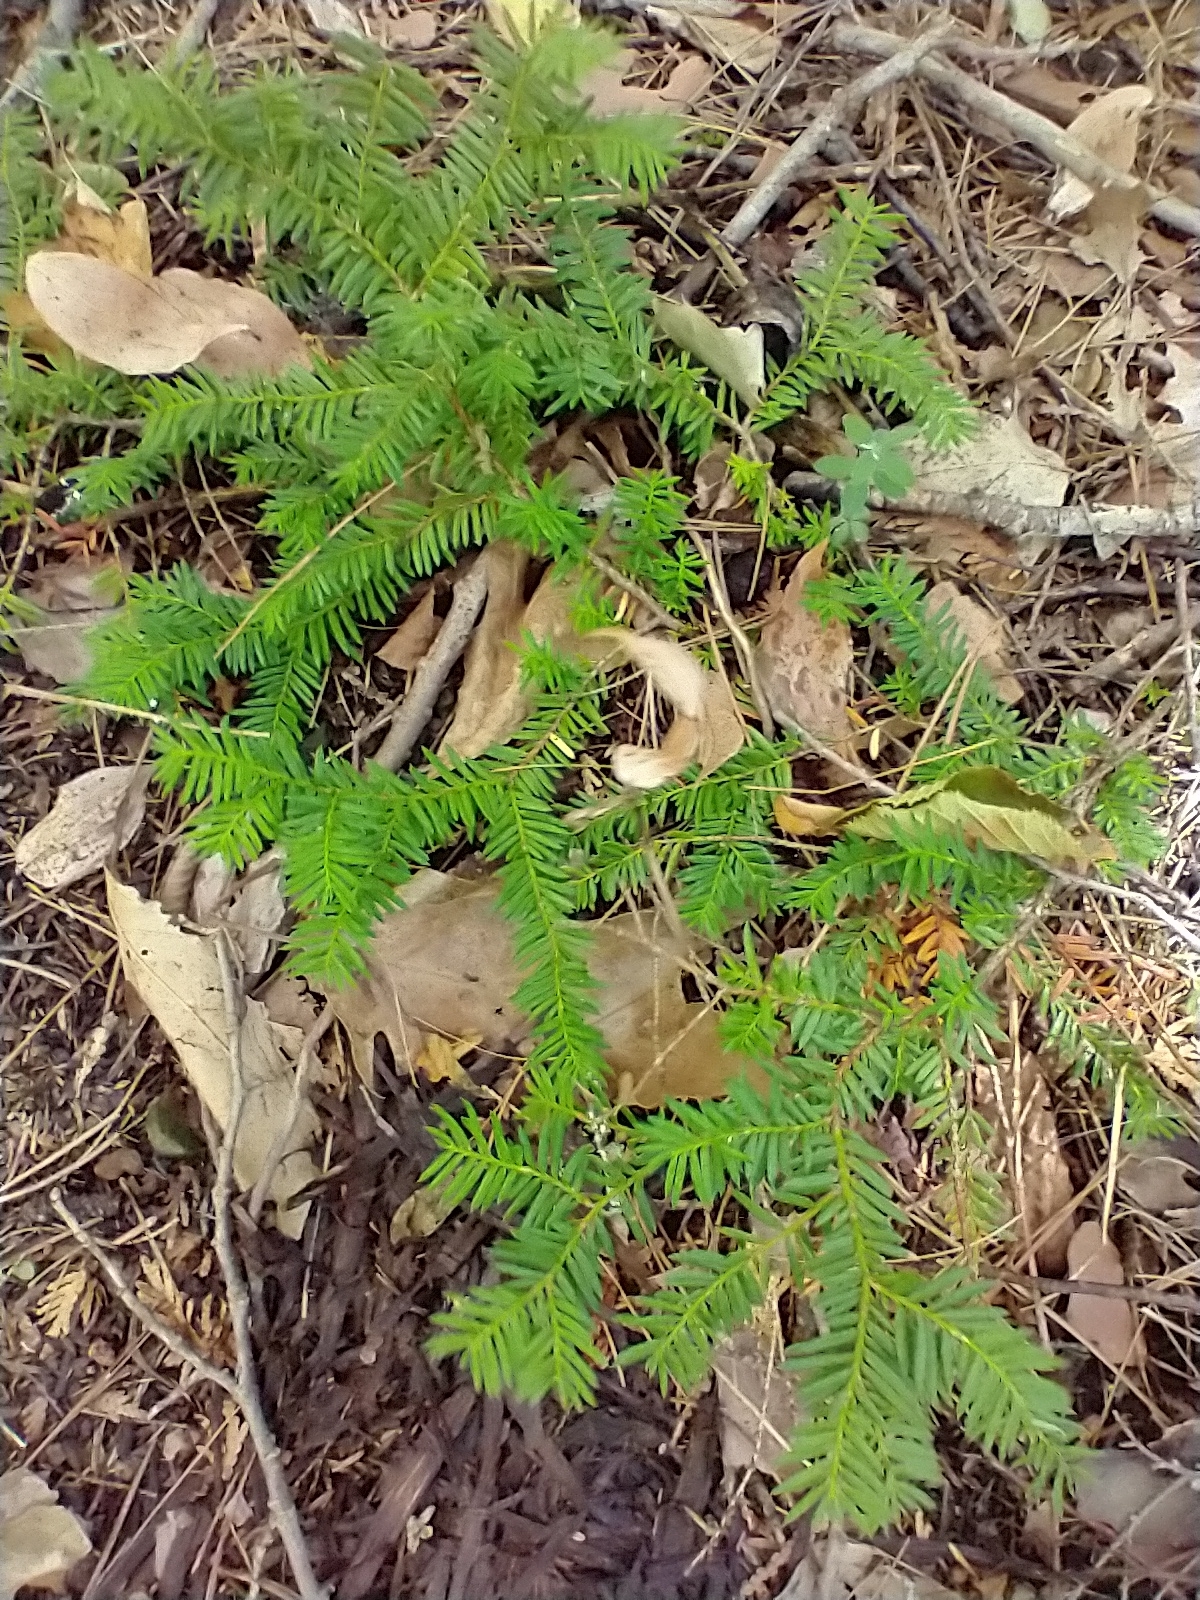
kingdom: Plantae
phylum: Tracheophyta
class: Pinopsida
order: Pinales
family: Taxaceae
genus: Taxus
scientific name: Taxus canadensis
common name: American yew
